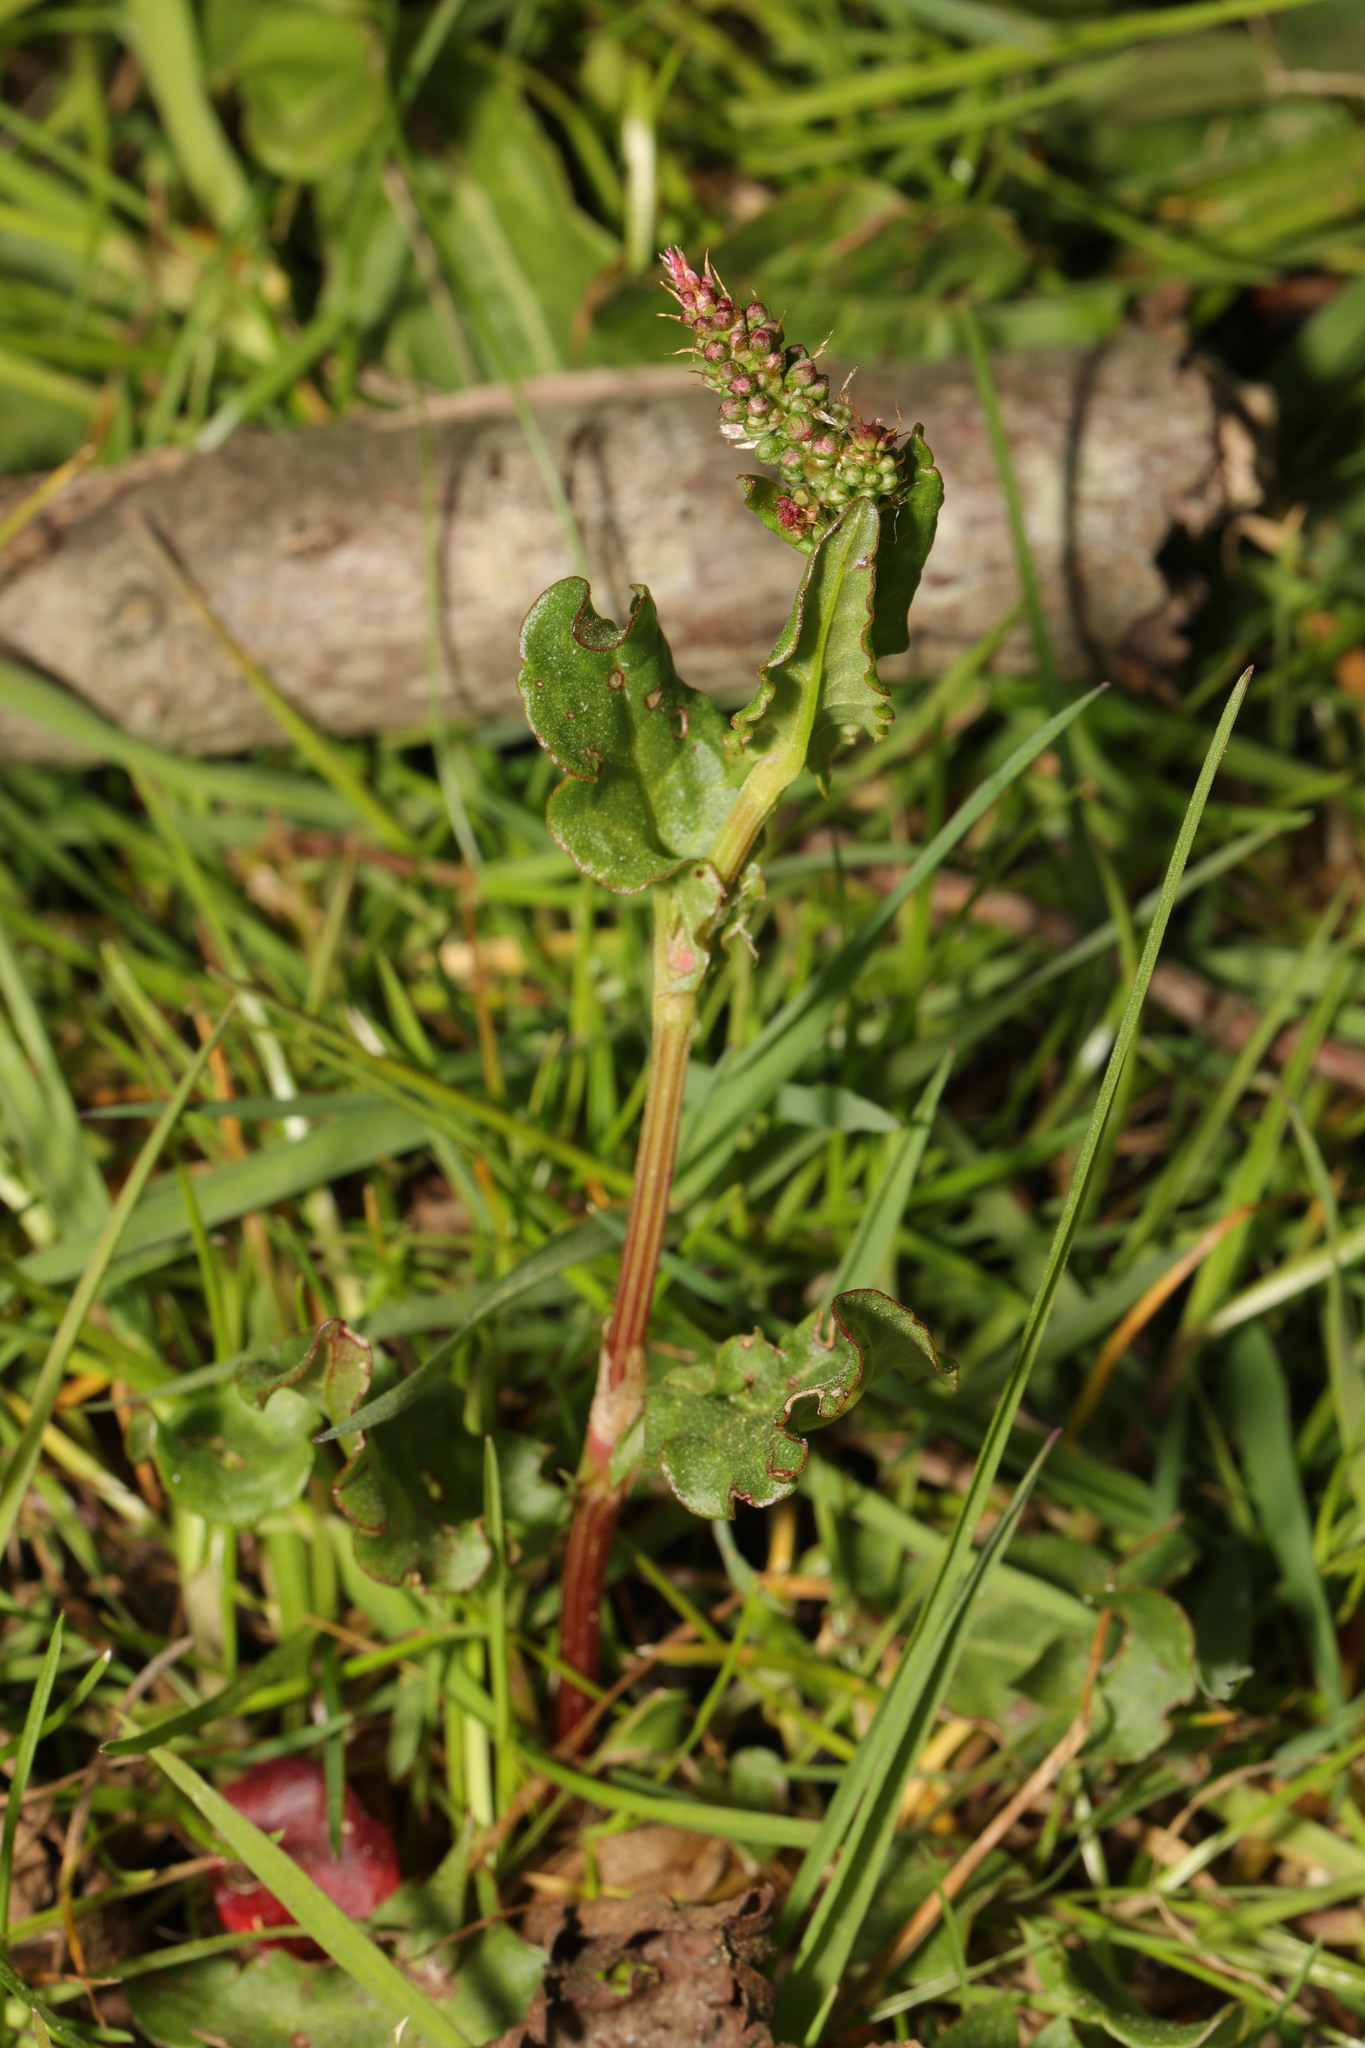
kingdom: Plantae
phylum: Tracheophyta
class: Magnoliopsida
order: Caryophyllales
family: Polygonaceae
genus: Rumex
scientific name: Rumex acetosa
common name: Garden sorrel
